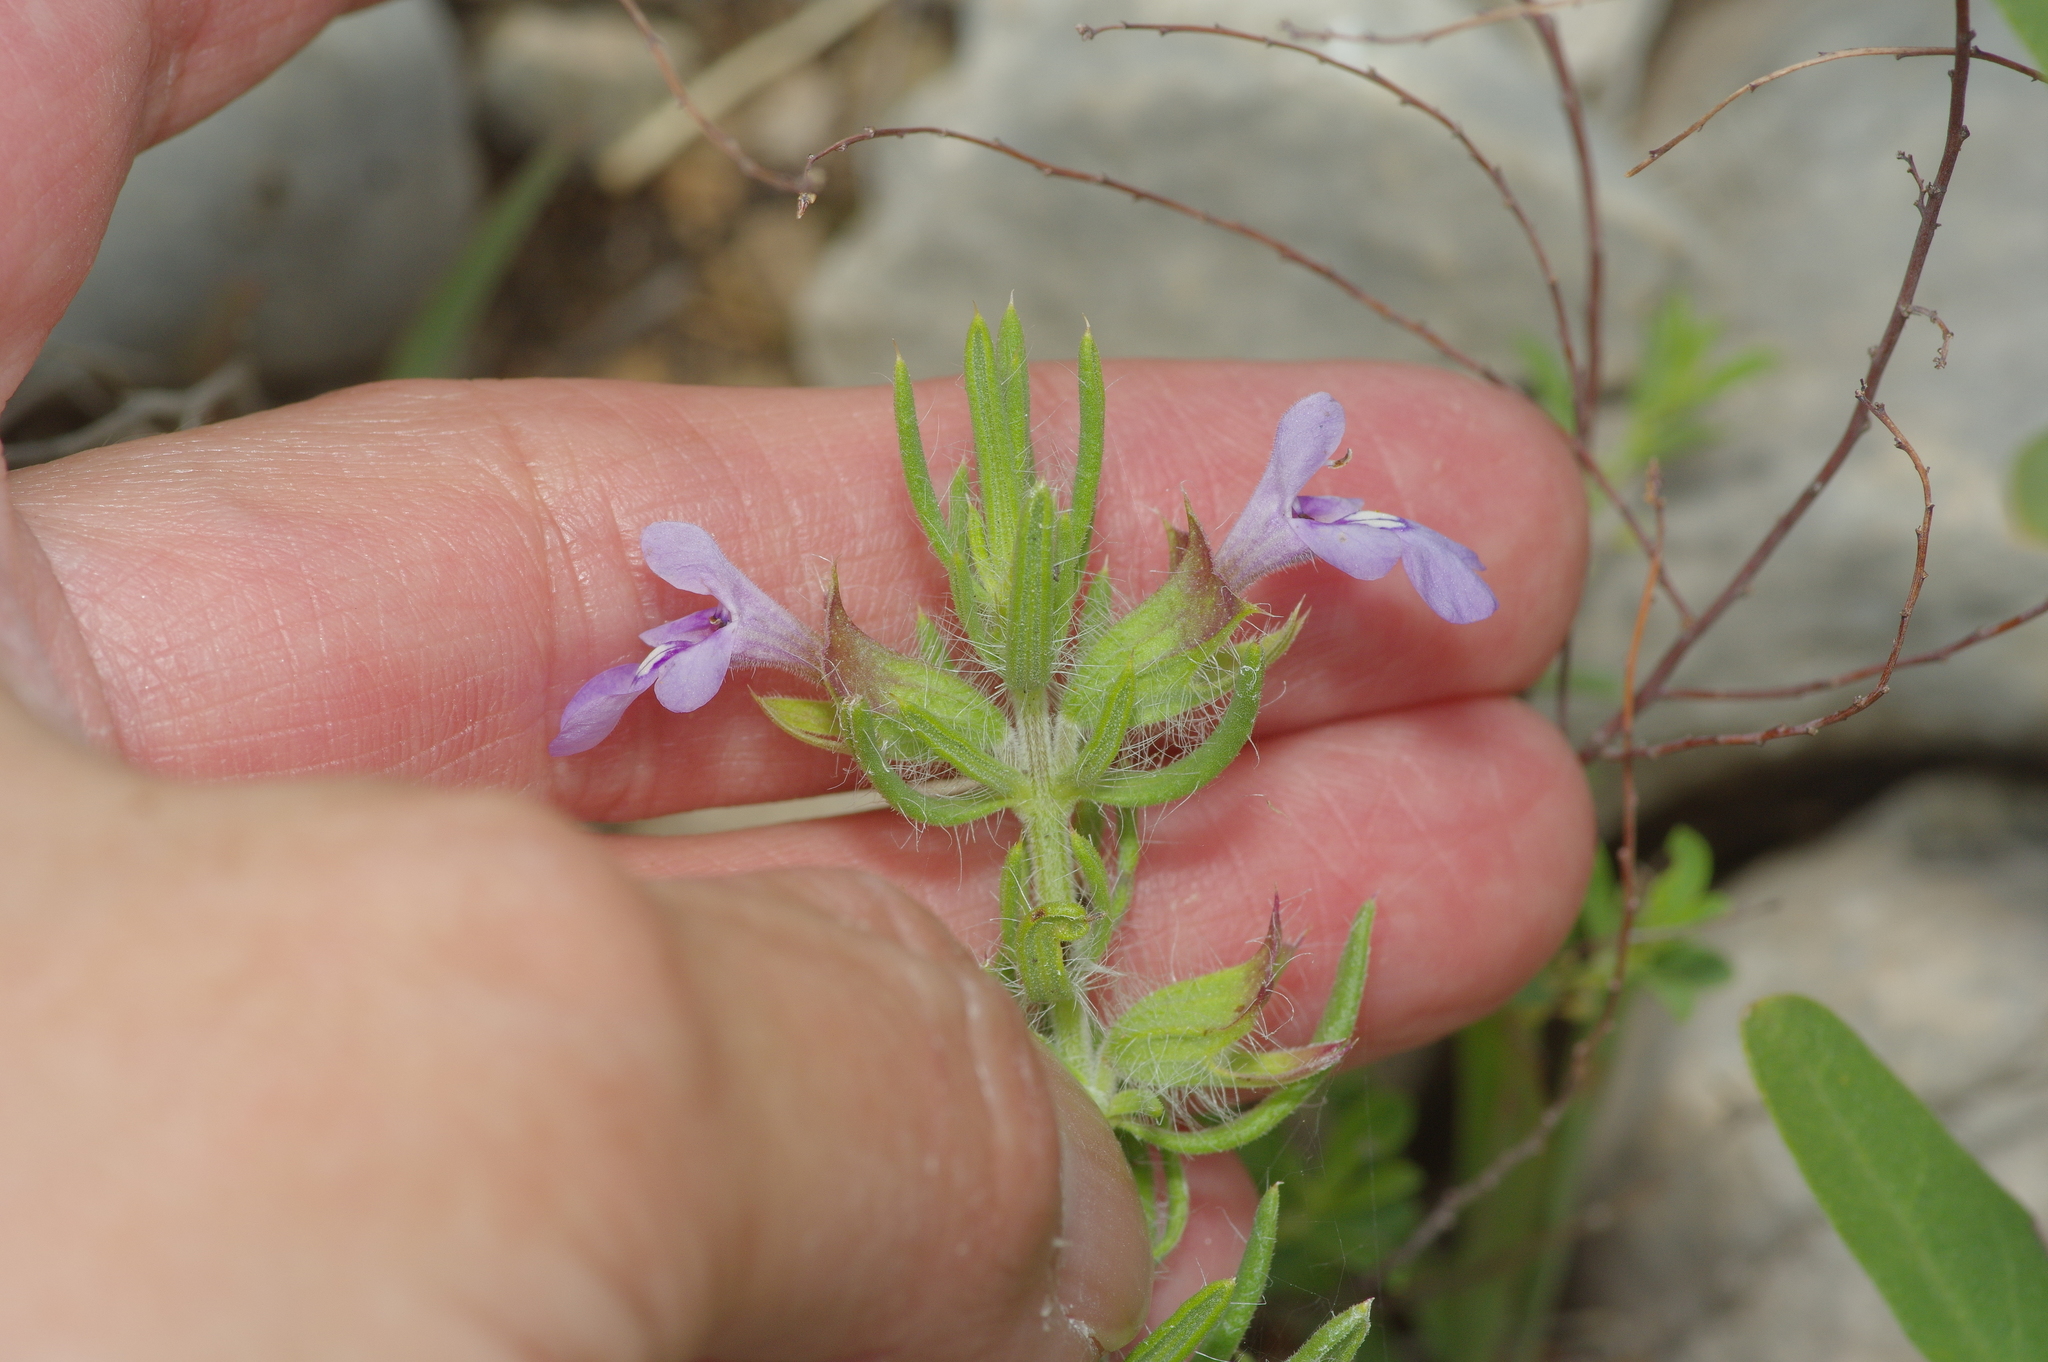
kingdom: Plantae
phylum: Tracheophyta
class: Magnoliopsida
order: Lamiales
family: Lamiaceae
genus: Salvia
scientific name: Salvia texana
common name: Texas sage
